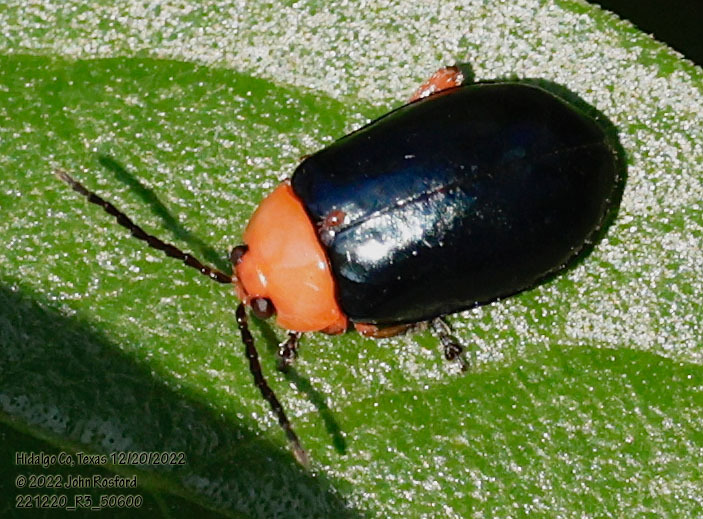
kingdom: Animalia
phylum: Arthropoda
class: Insecta
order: Coleoptera
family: Chrysomelidae
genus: Asphaera
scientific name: Asphaera lustrans
